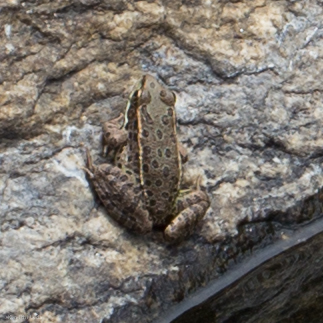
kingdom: Animalia
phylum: Chordata
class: Amphibia
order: Anura
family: Ranidae
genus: Lithobates
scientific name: Lithobates yavapaiensis
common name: Lowland leopard frog
